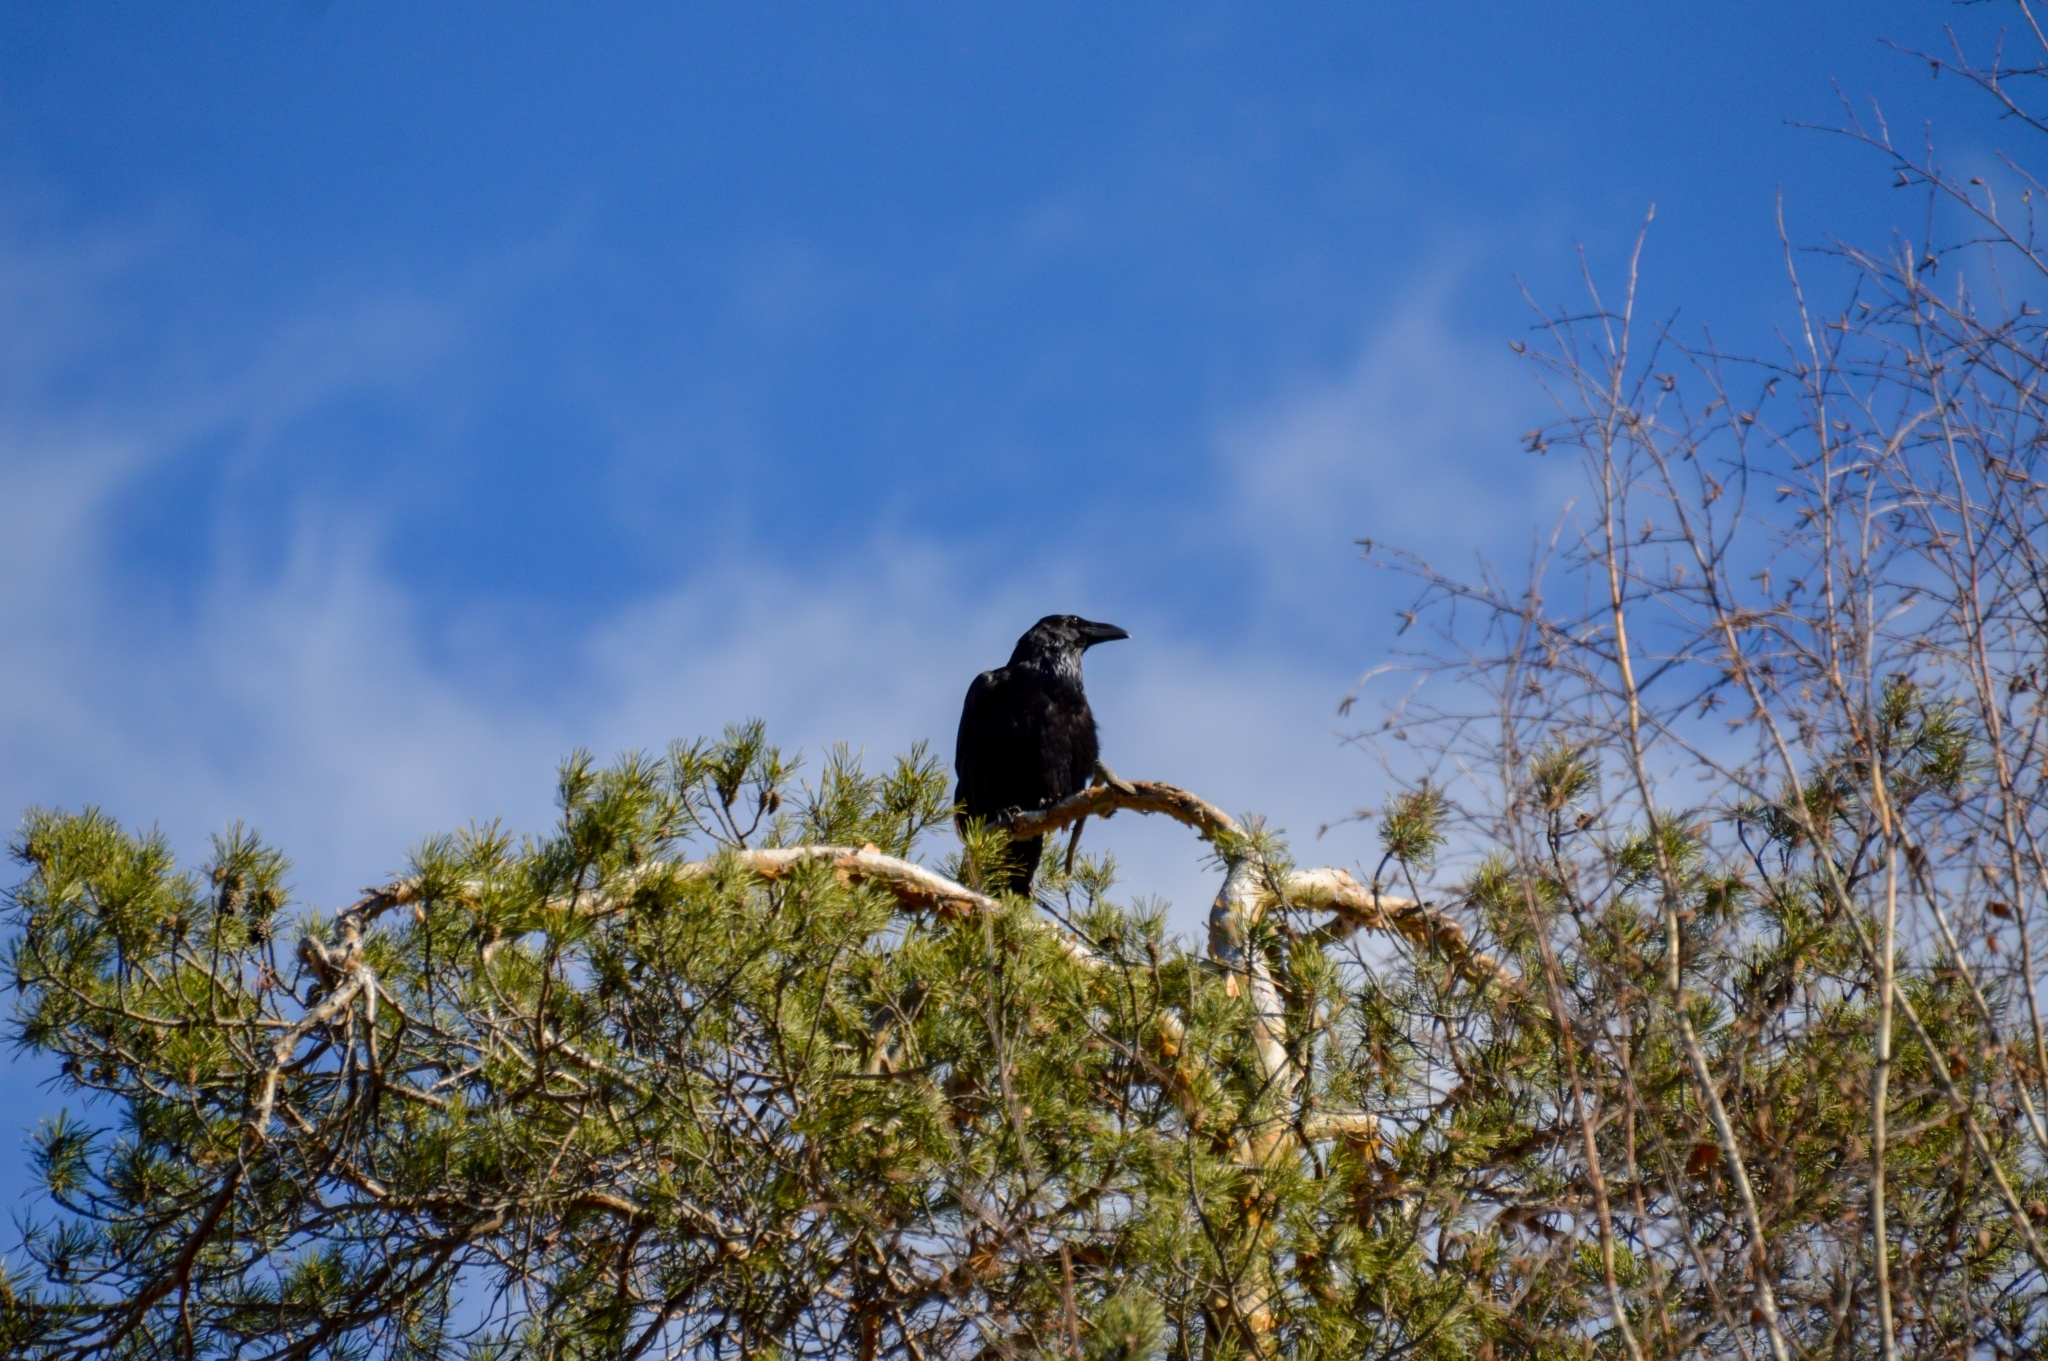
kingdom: Animalia
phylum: Chordata
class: Aves
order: Passeriformes
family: Corvidae
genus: Corvus
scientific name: Corvus corax
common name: Common raven
